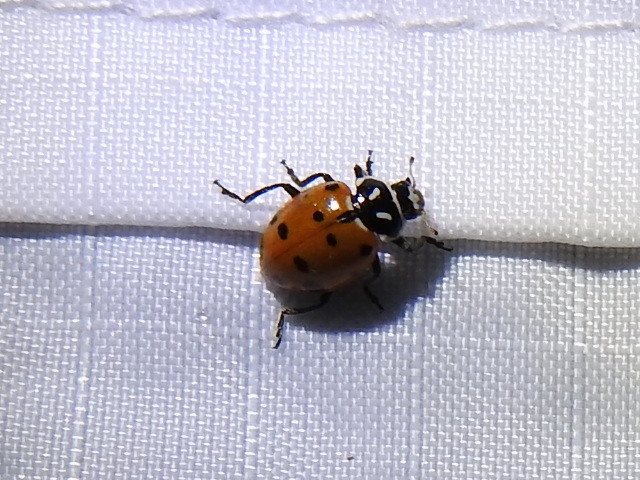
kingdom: Animalia
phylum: Arthropoda
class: Insecta
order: Coleoptera
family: Coccinellidae
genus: Hippodamia
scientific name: Hippodamia convergens
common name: Convergent lady beetle
